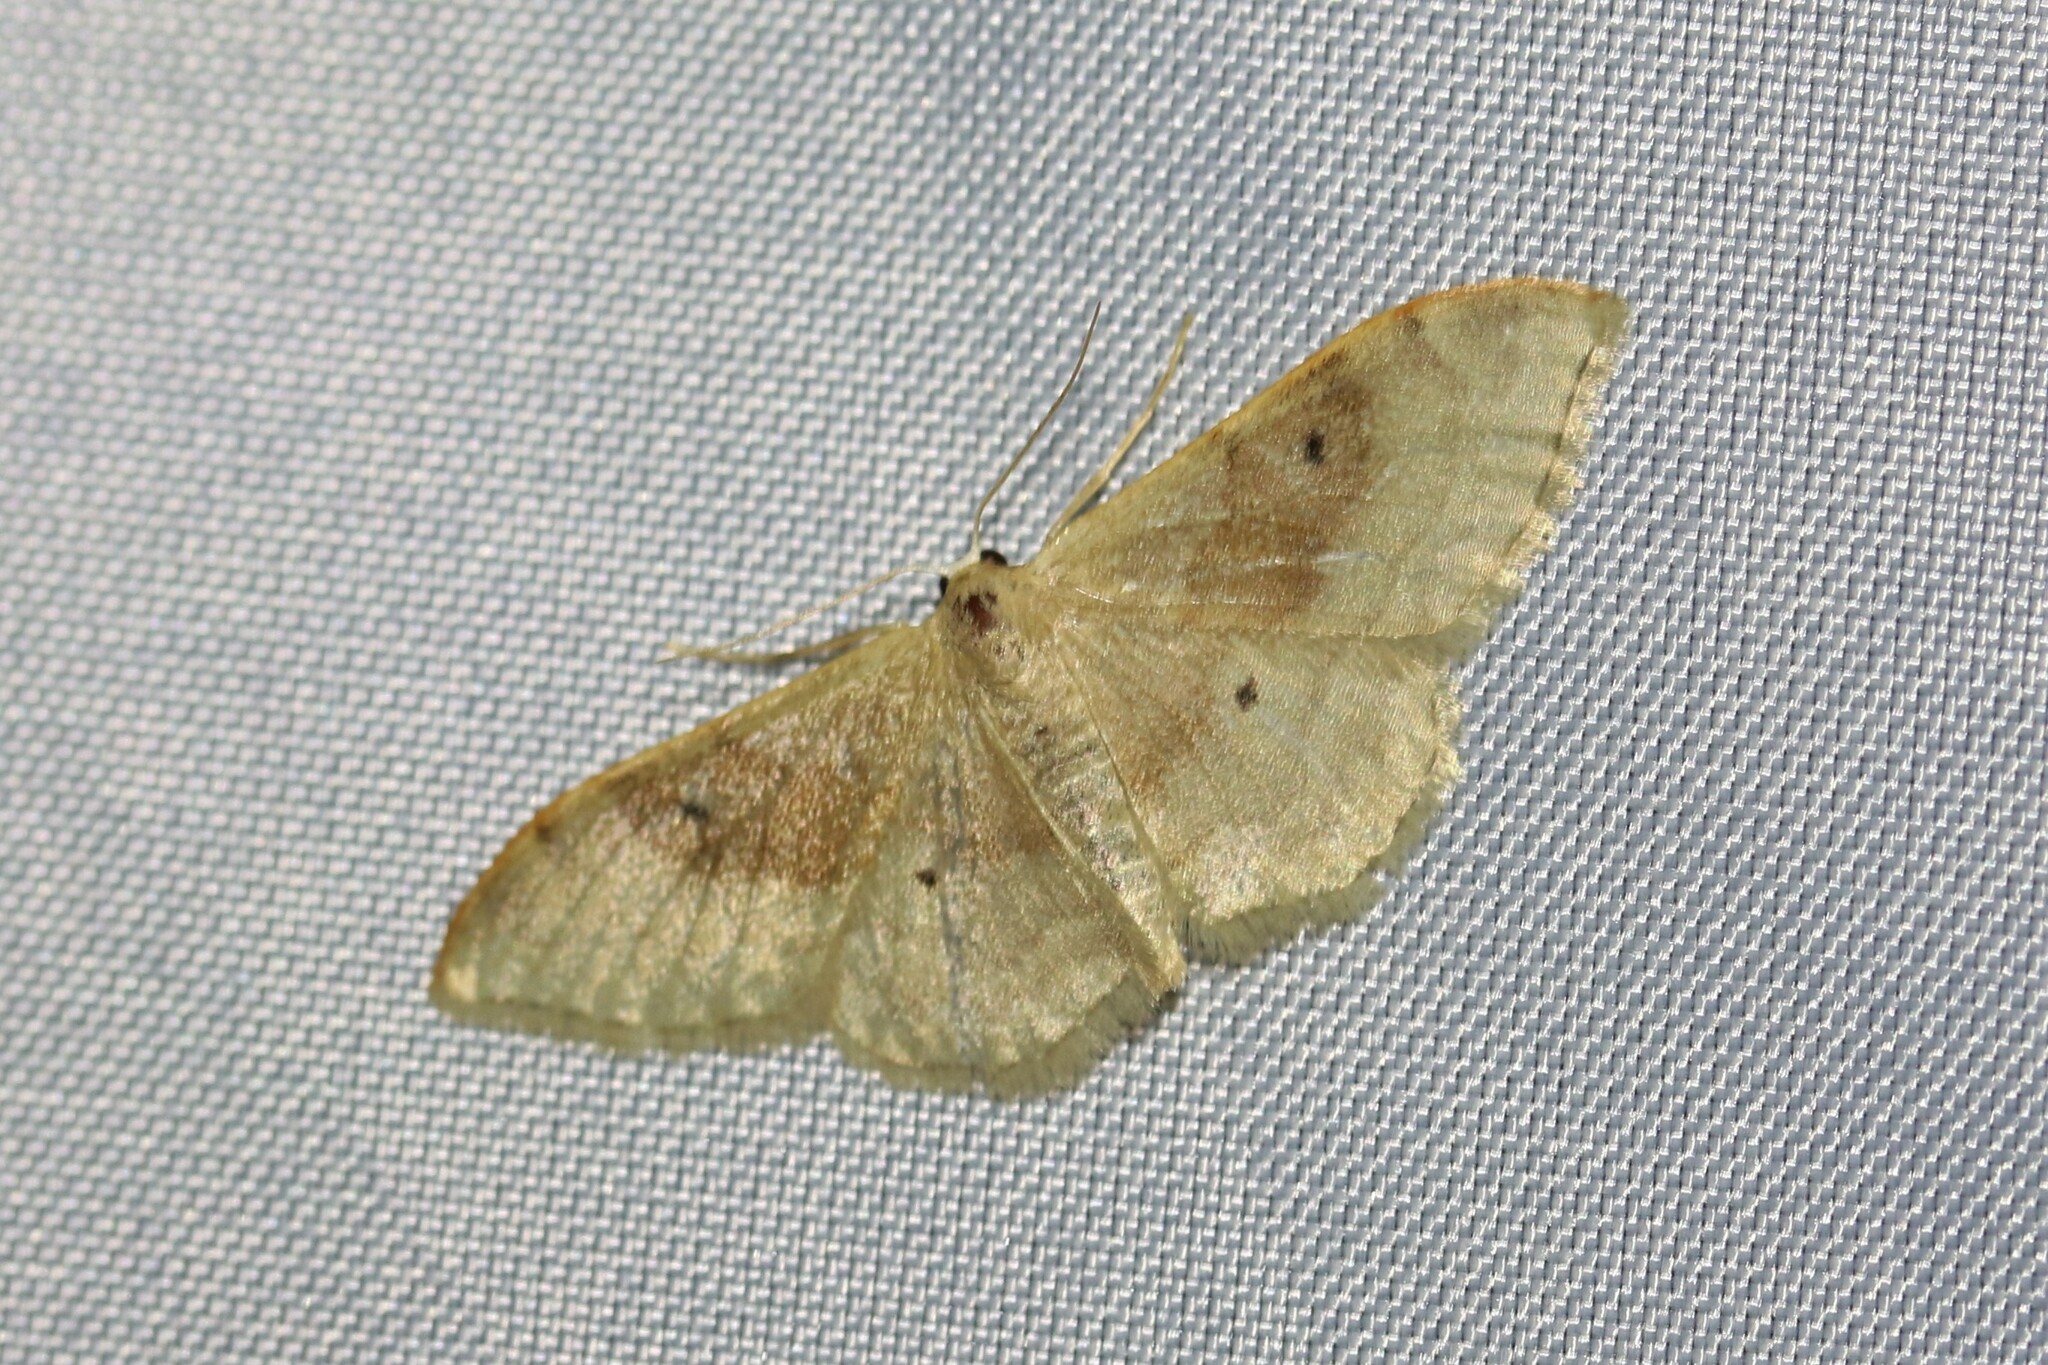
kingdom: Animalia
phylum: Arthropoda
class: Insecta
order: Lepidoptera
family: Geometridae
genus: Idaea
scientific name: Idaea degeneraria
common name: Portland ribbon wave
